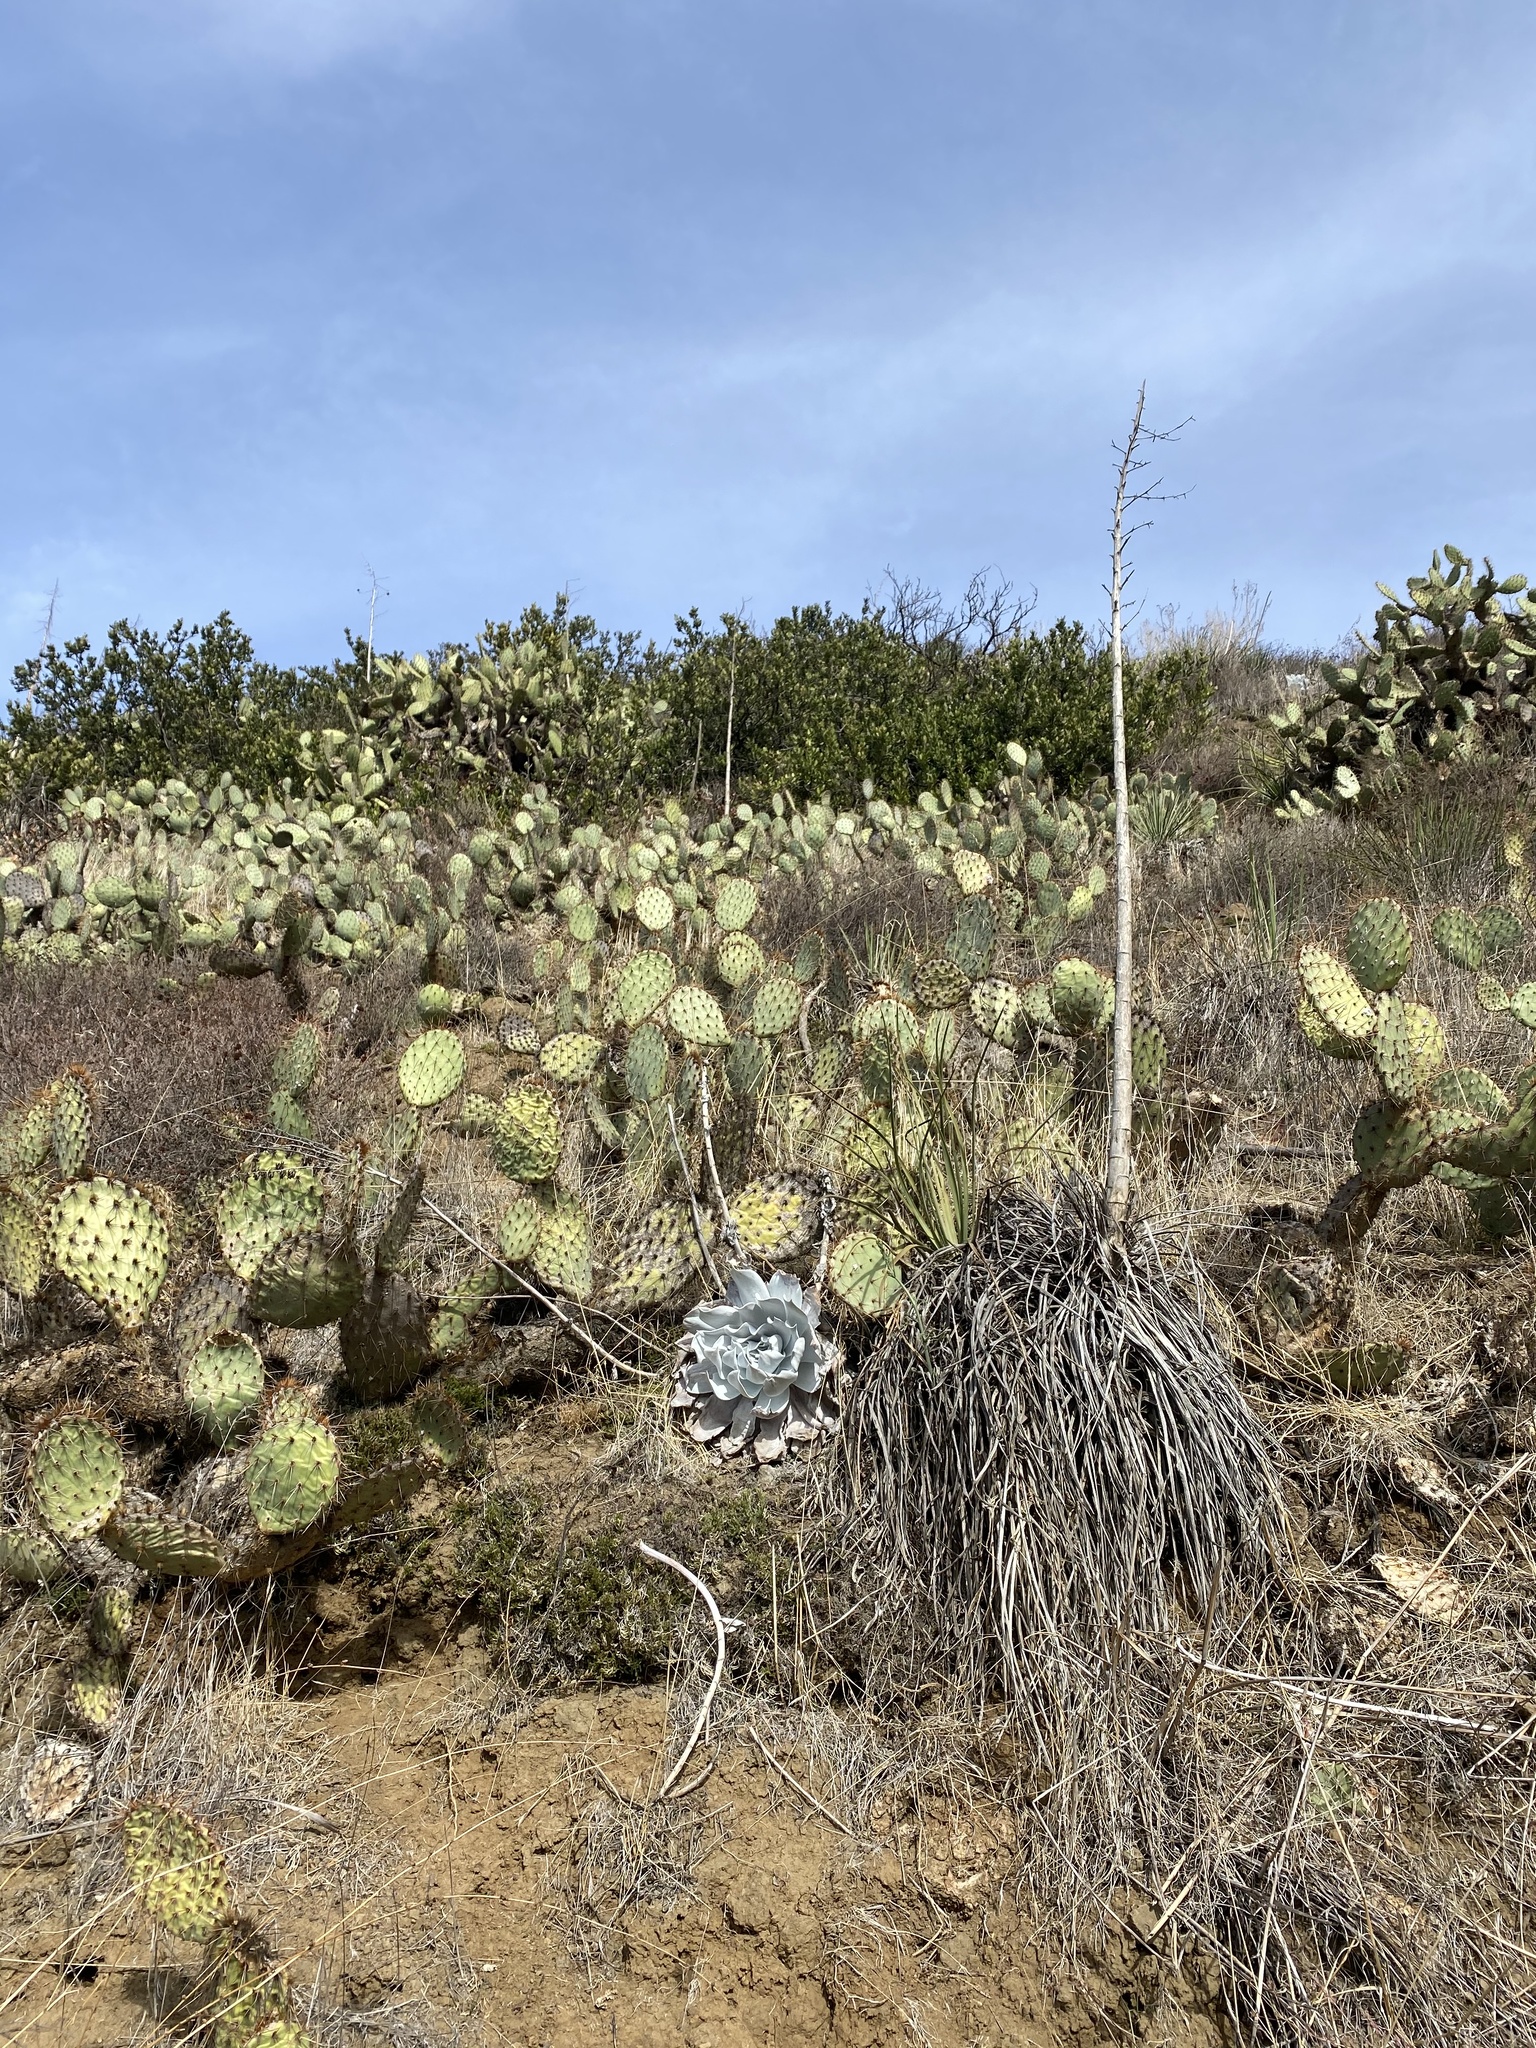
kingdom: Plantae
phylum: Tracheophyta
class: Magnoliopsida
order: Saxifragales
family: Crassulaceae
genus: Dudleya
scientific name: Dudleya pulverulenta
